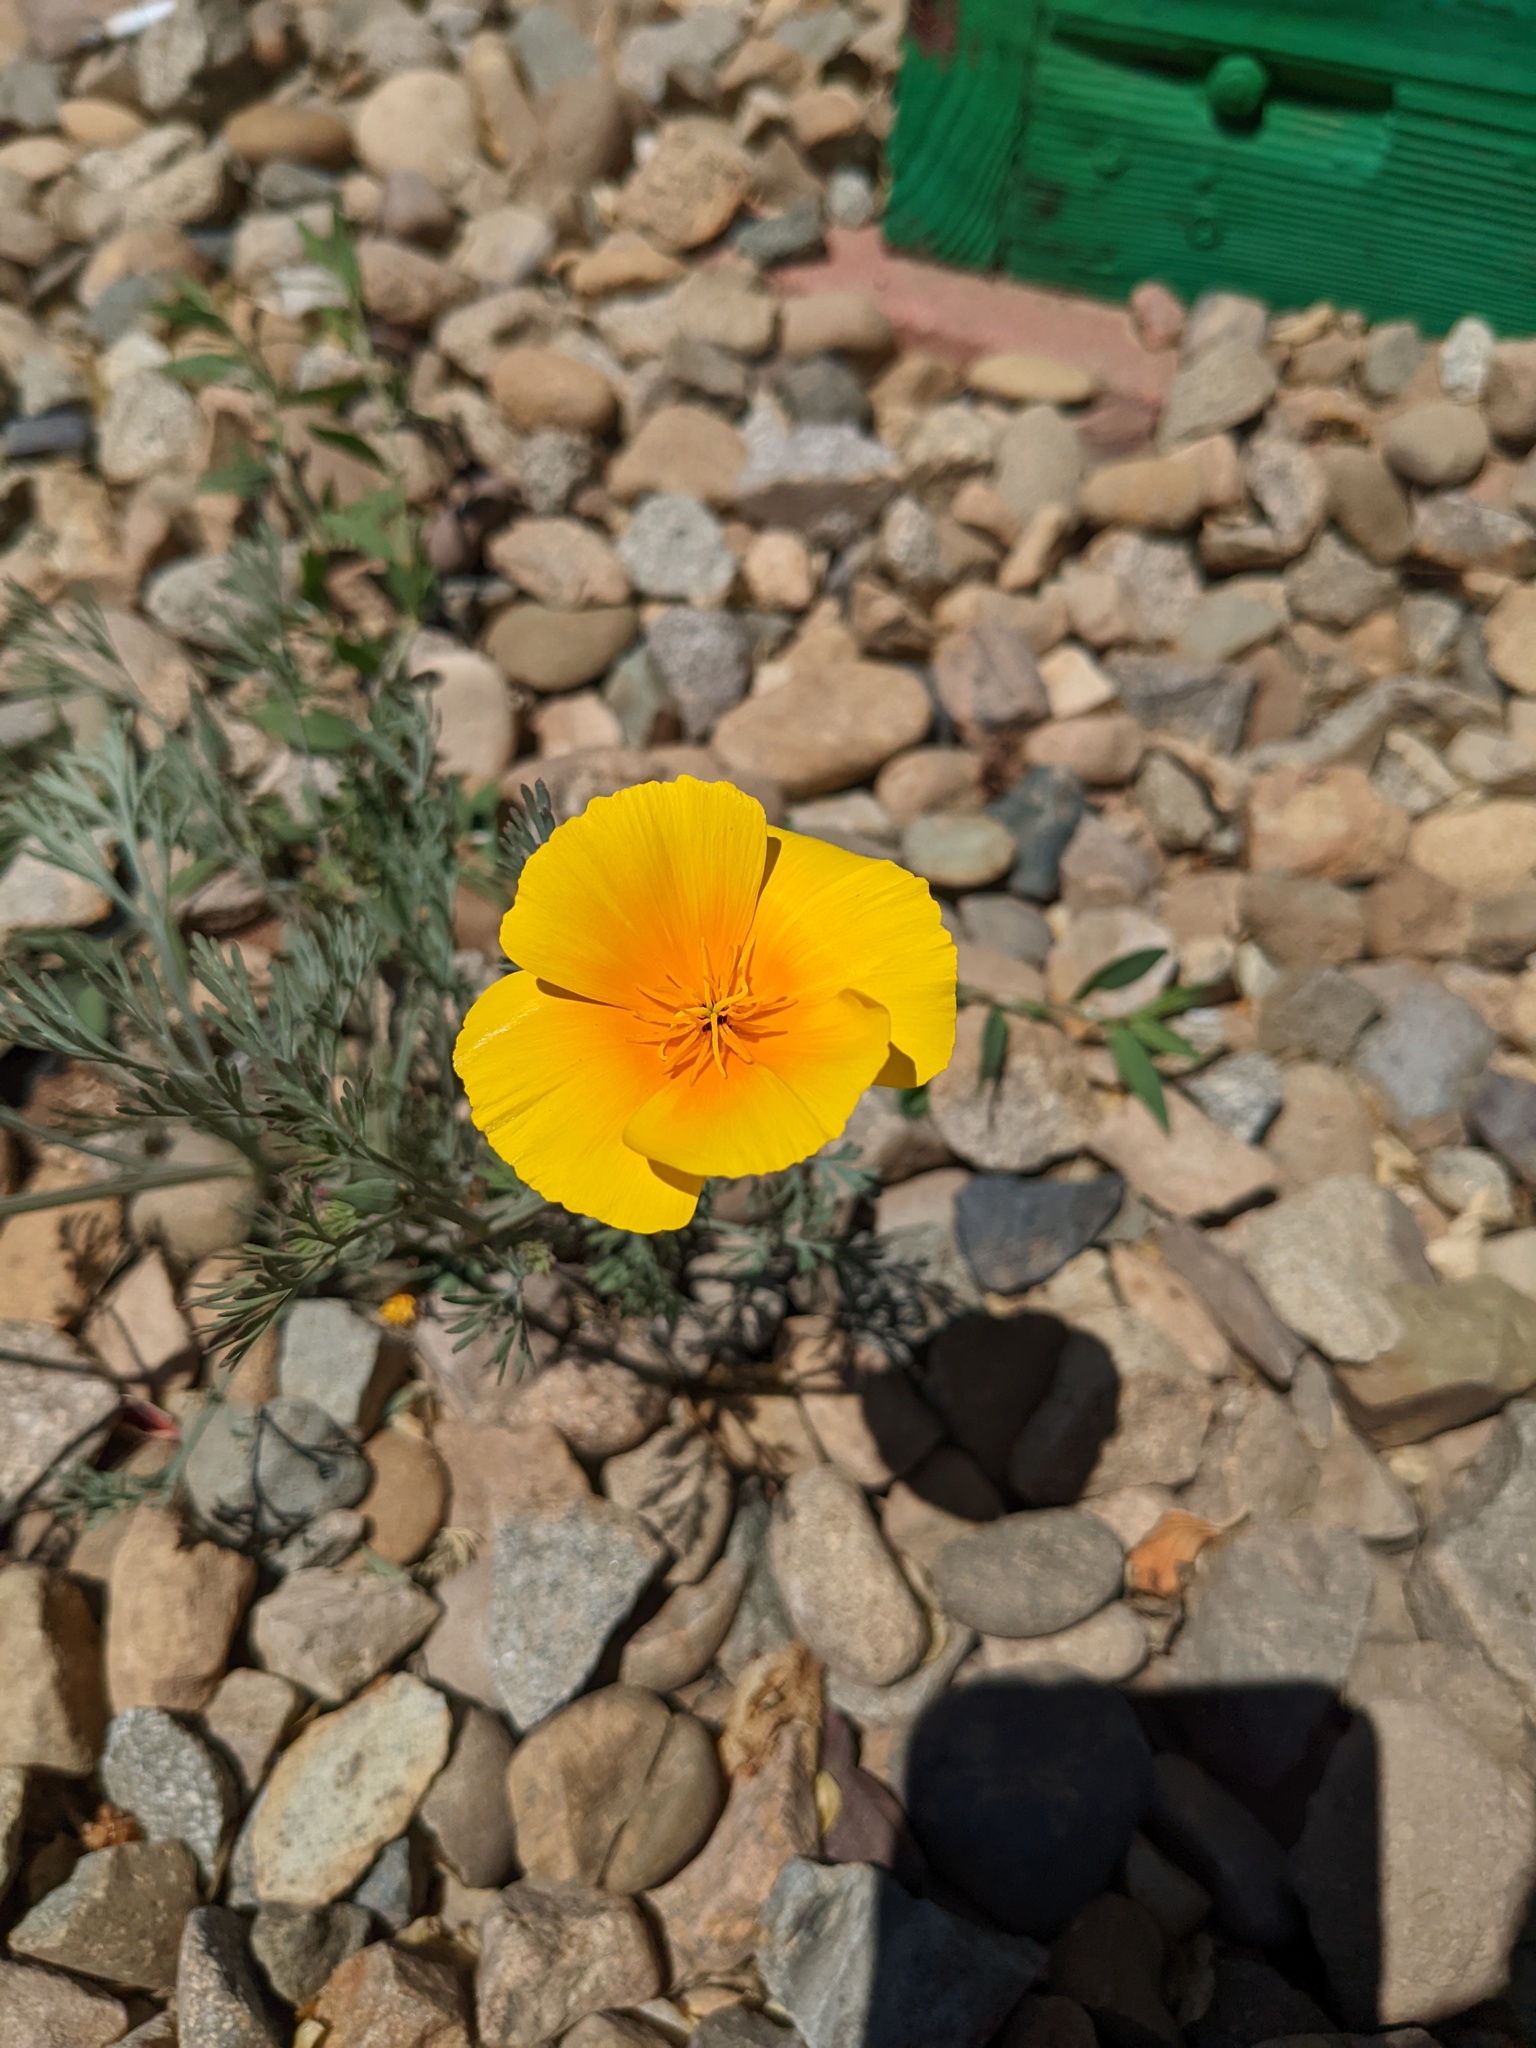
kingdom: Plantae
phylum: Tracheophyta
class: Magnoliopsida
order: Ranunculales
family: Papaveraceae
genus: Eschscholzia
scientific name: Eschscholzia californica
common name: California poppy
